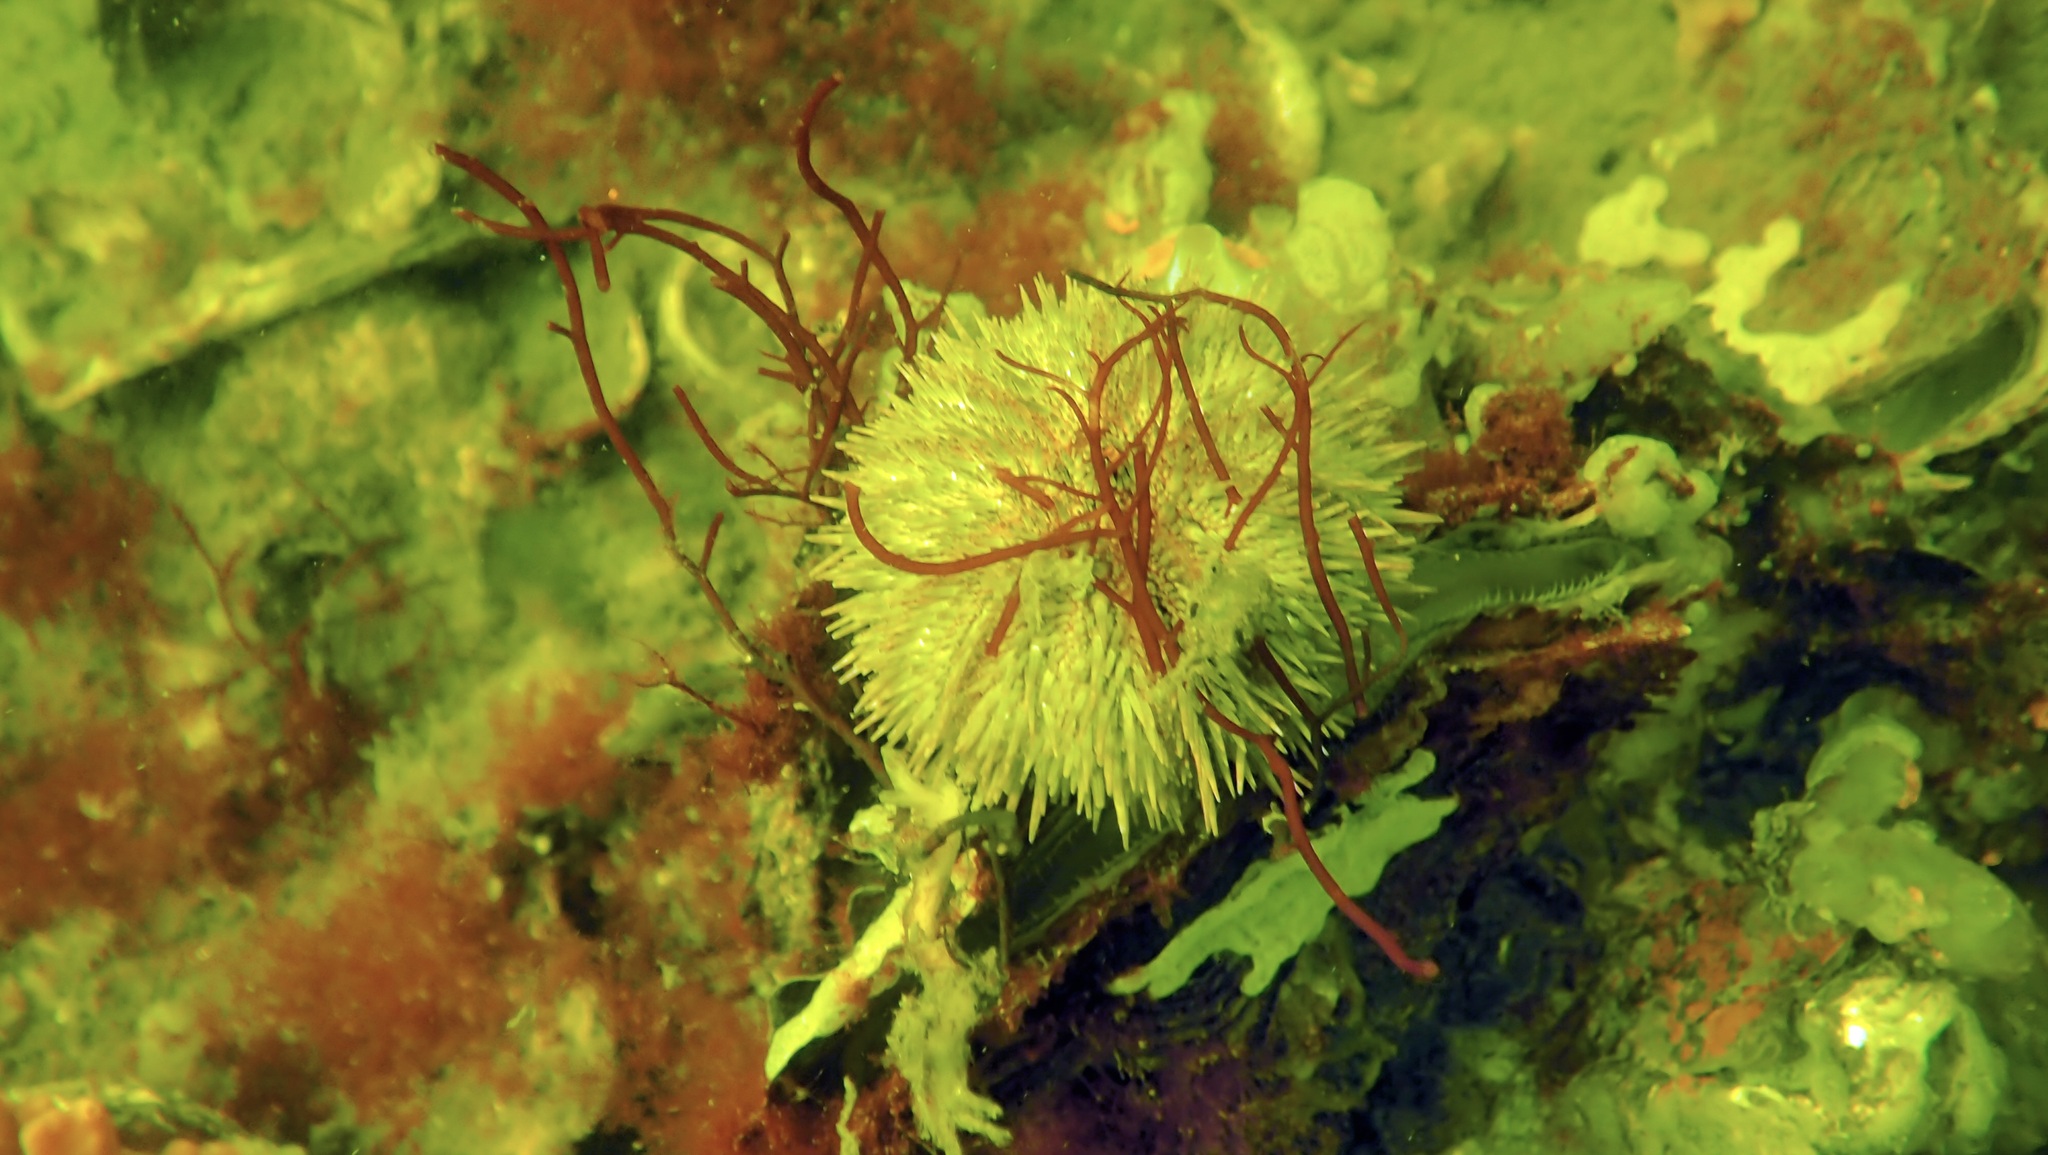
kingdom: Animalia
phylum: Echinodermata
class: Echinoidea
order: Camarodonta
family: Parechinidae
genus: Psammechinus
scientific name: Psammechinus miliaris
